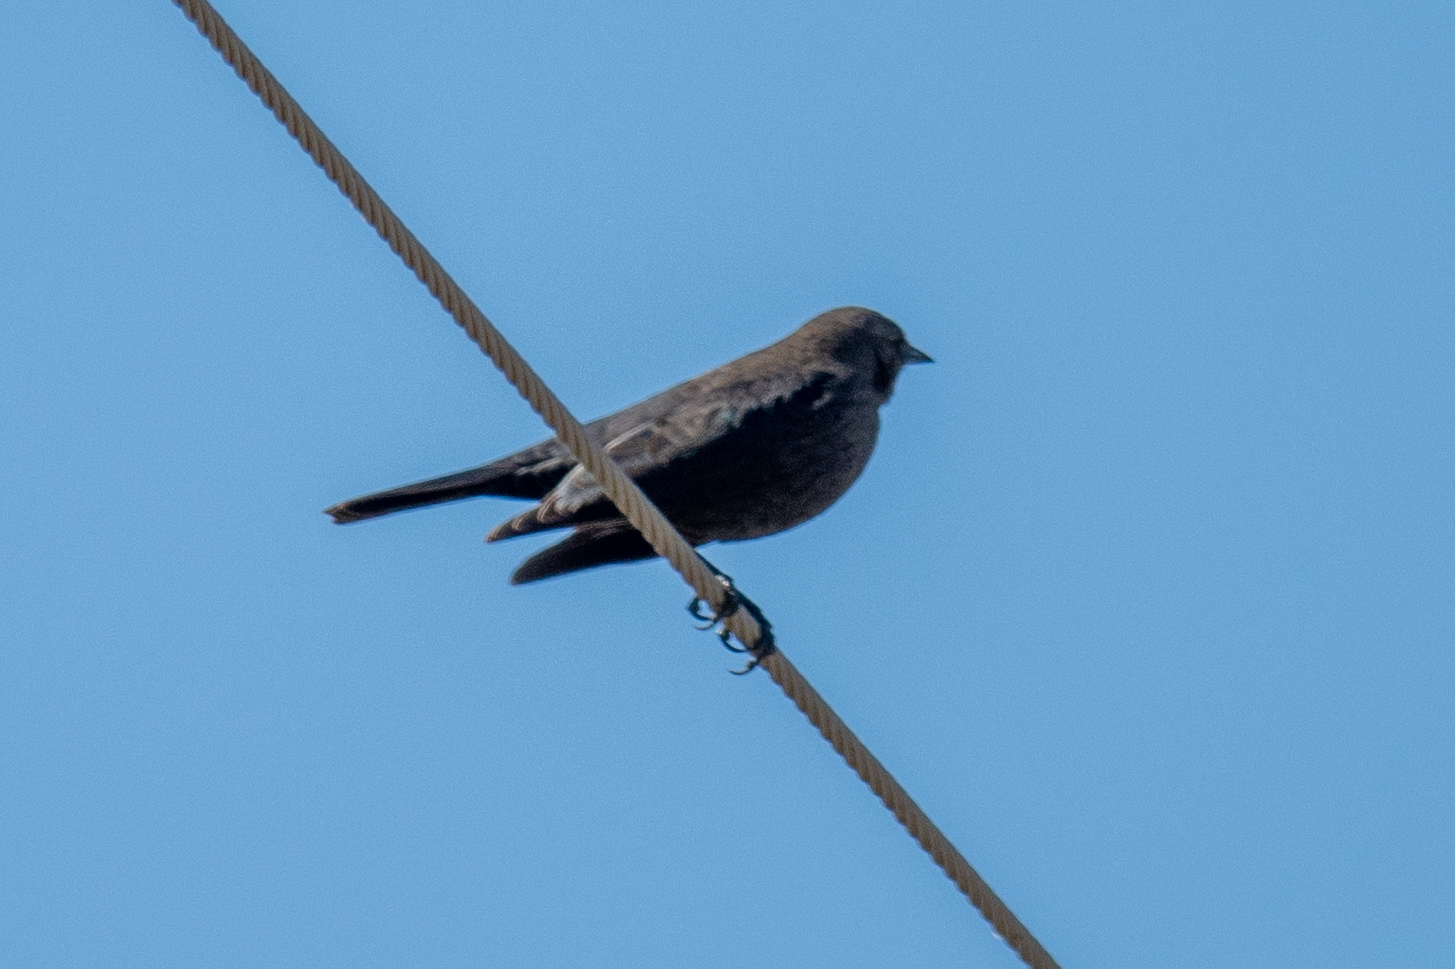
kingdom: Animalia
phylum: Chordata
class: Aves
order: Passeriformes
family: Icteridae
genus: Euphagus
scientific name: Euphagus cyanocephalus
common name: Brewer's blackbird
